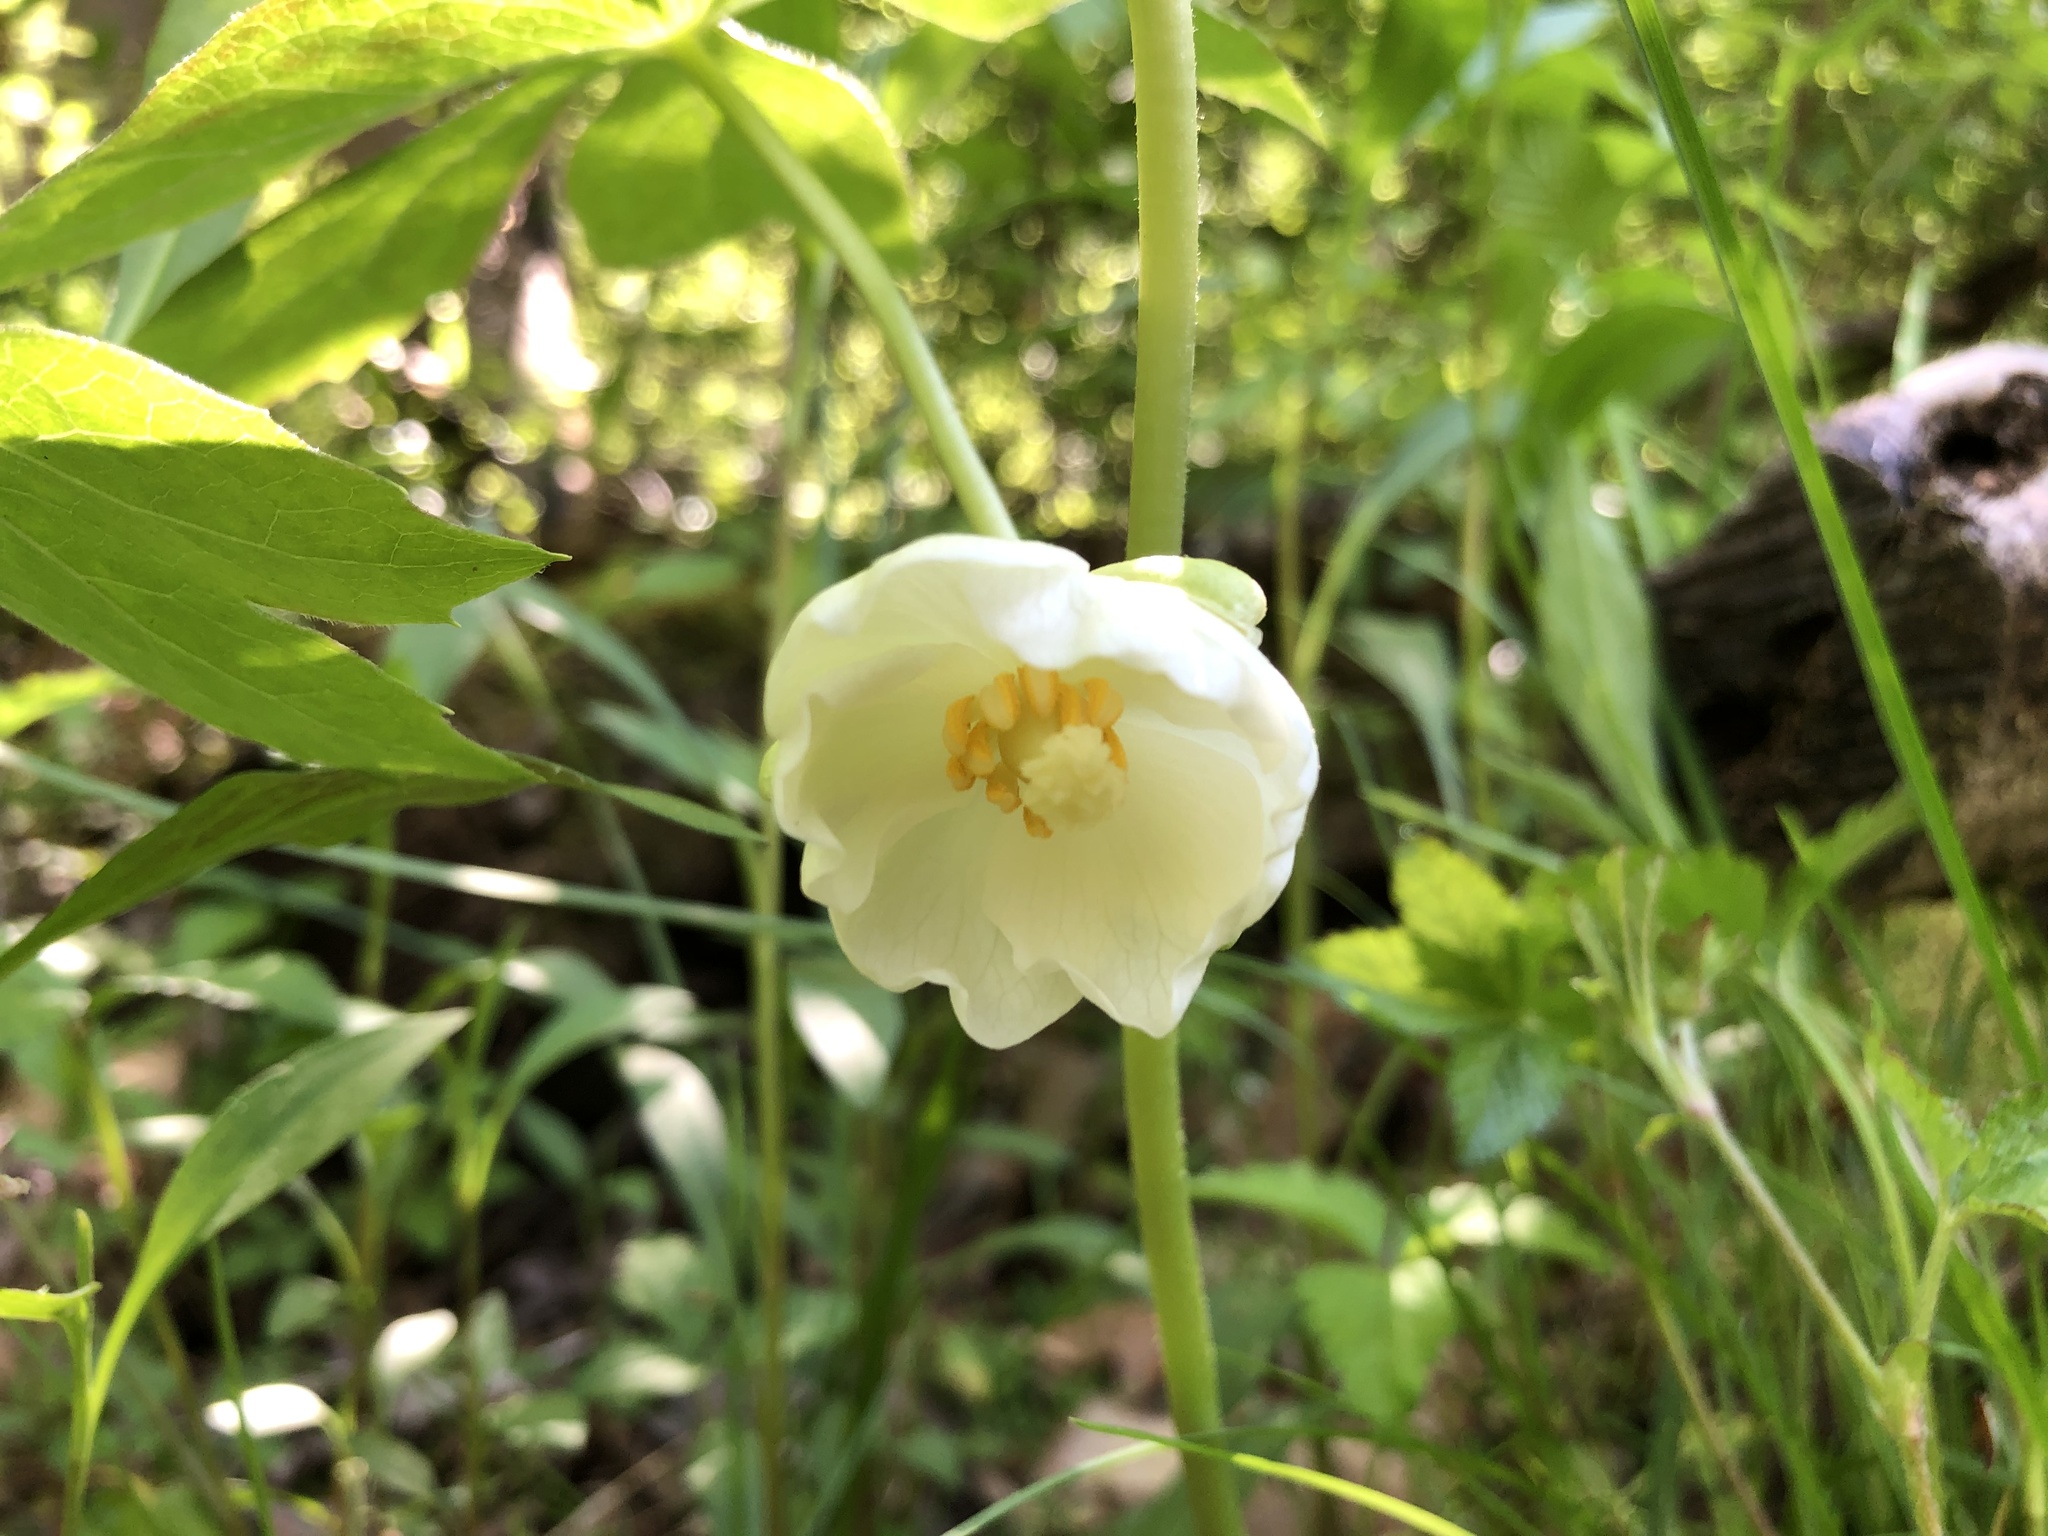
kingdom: Plantae
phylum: Tracheophyta
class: Magnoliopsida
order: Ranunculales
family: Berberidaceae
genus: Podophyllum
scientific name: Podophyllum peltatum
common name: Wild mandrake
